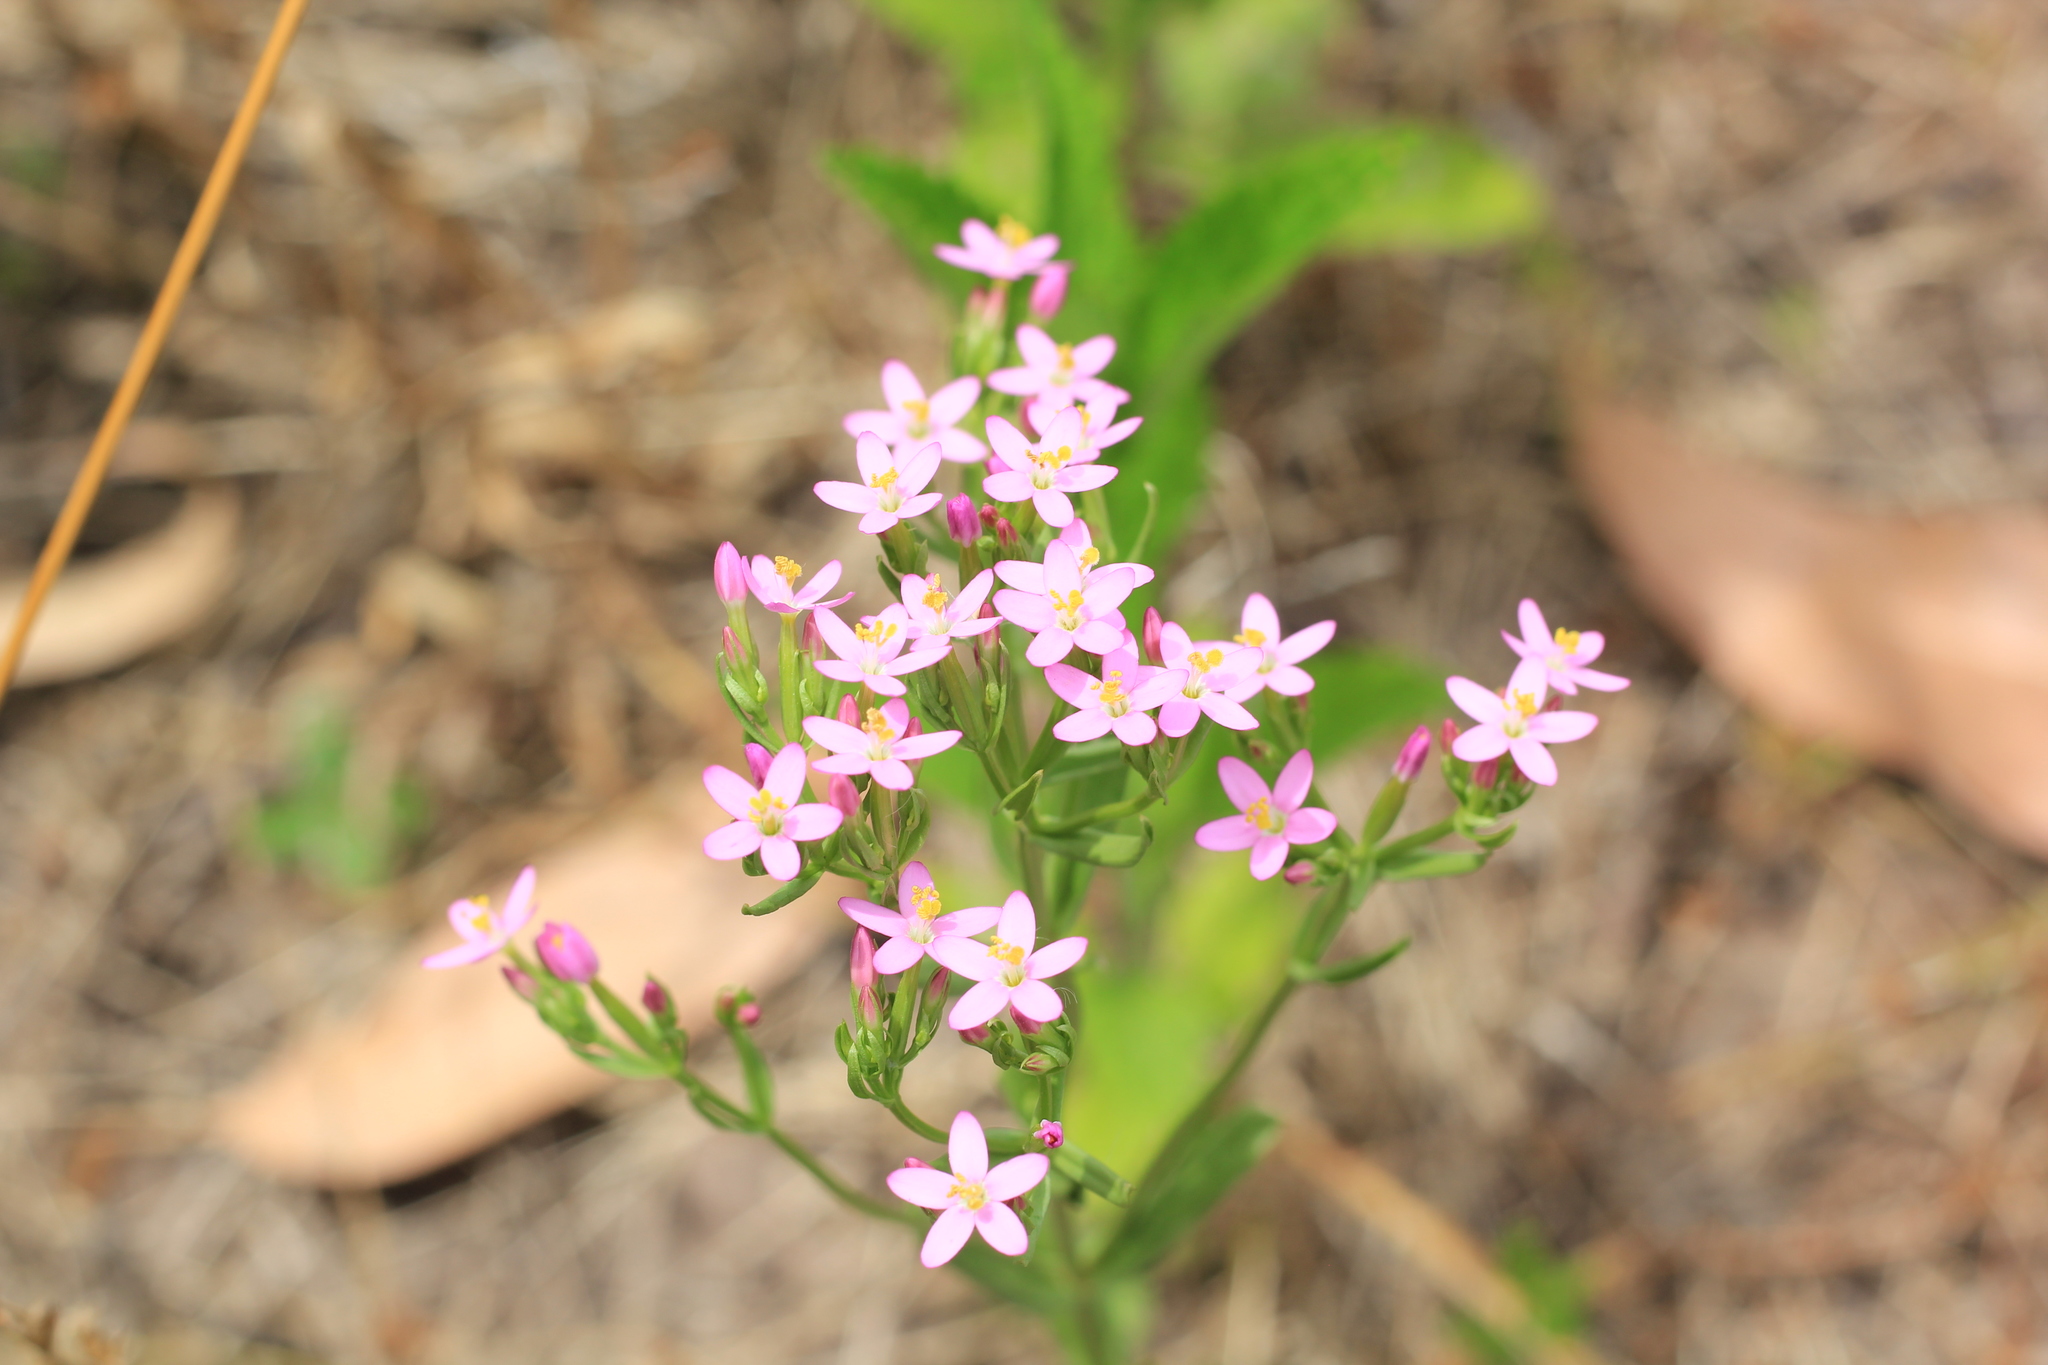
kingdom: Plantae
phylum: Tracheophyta
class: Magnoliopsida
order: Gentianales
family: Gentianaceae
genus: Centaurium
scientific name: Centaurium pulchellum
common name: Lesser centaury
